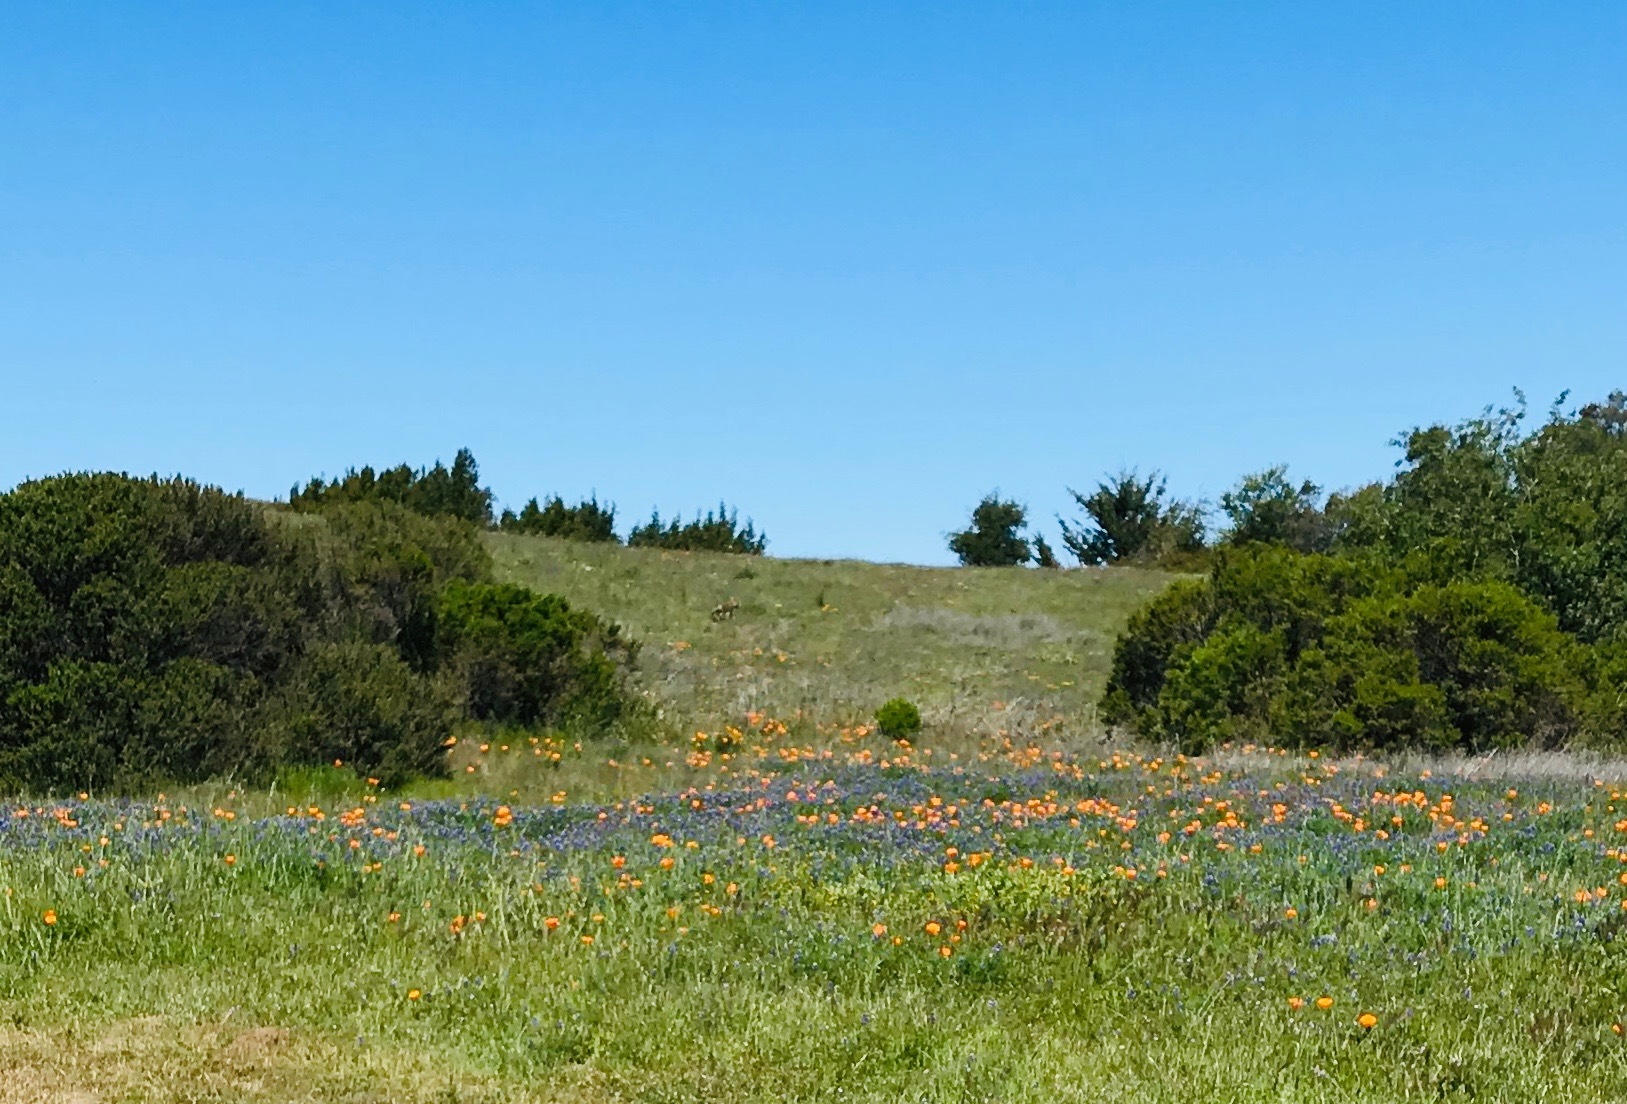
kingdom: Animalia
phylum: Chordata
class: Mammalia
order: Carnivora
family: Canidae
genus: Canis
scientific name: Canis latrans
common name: Coyote
